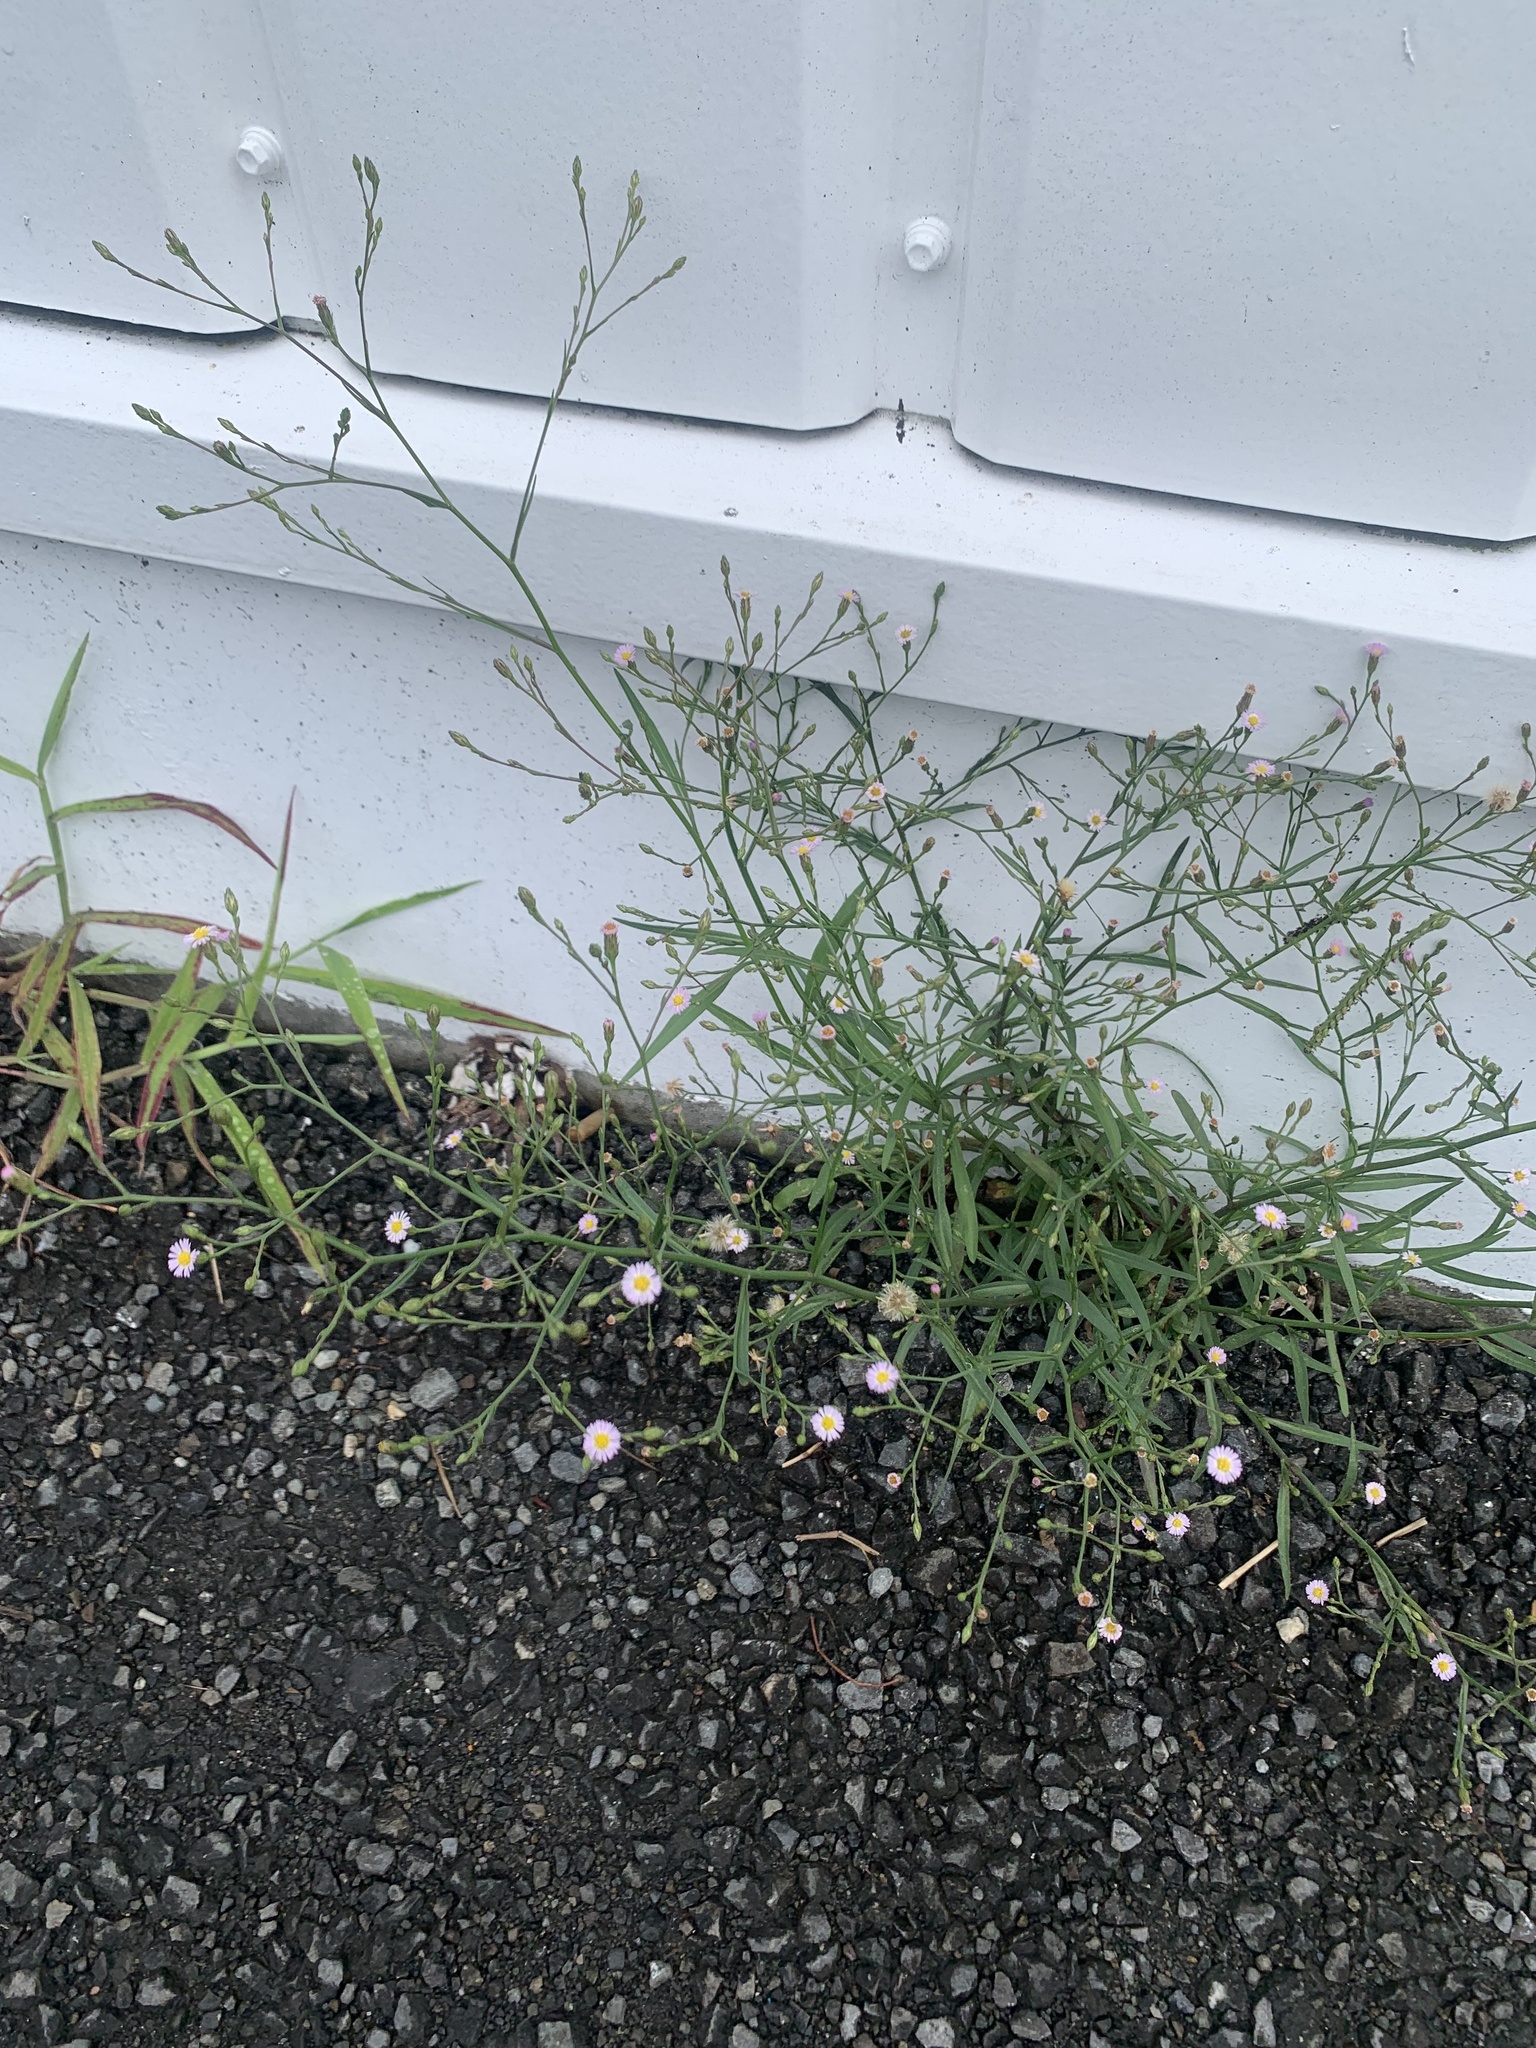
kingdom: Plantae
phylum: Tracheophyta
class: Magnoliopsida
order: Asterales
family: Asteraceae
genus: Symphyotrichum
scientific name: Symphyotrichum subulatum
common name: Annual saltmarsh aster
